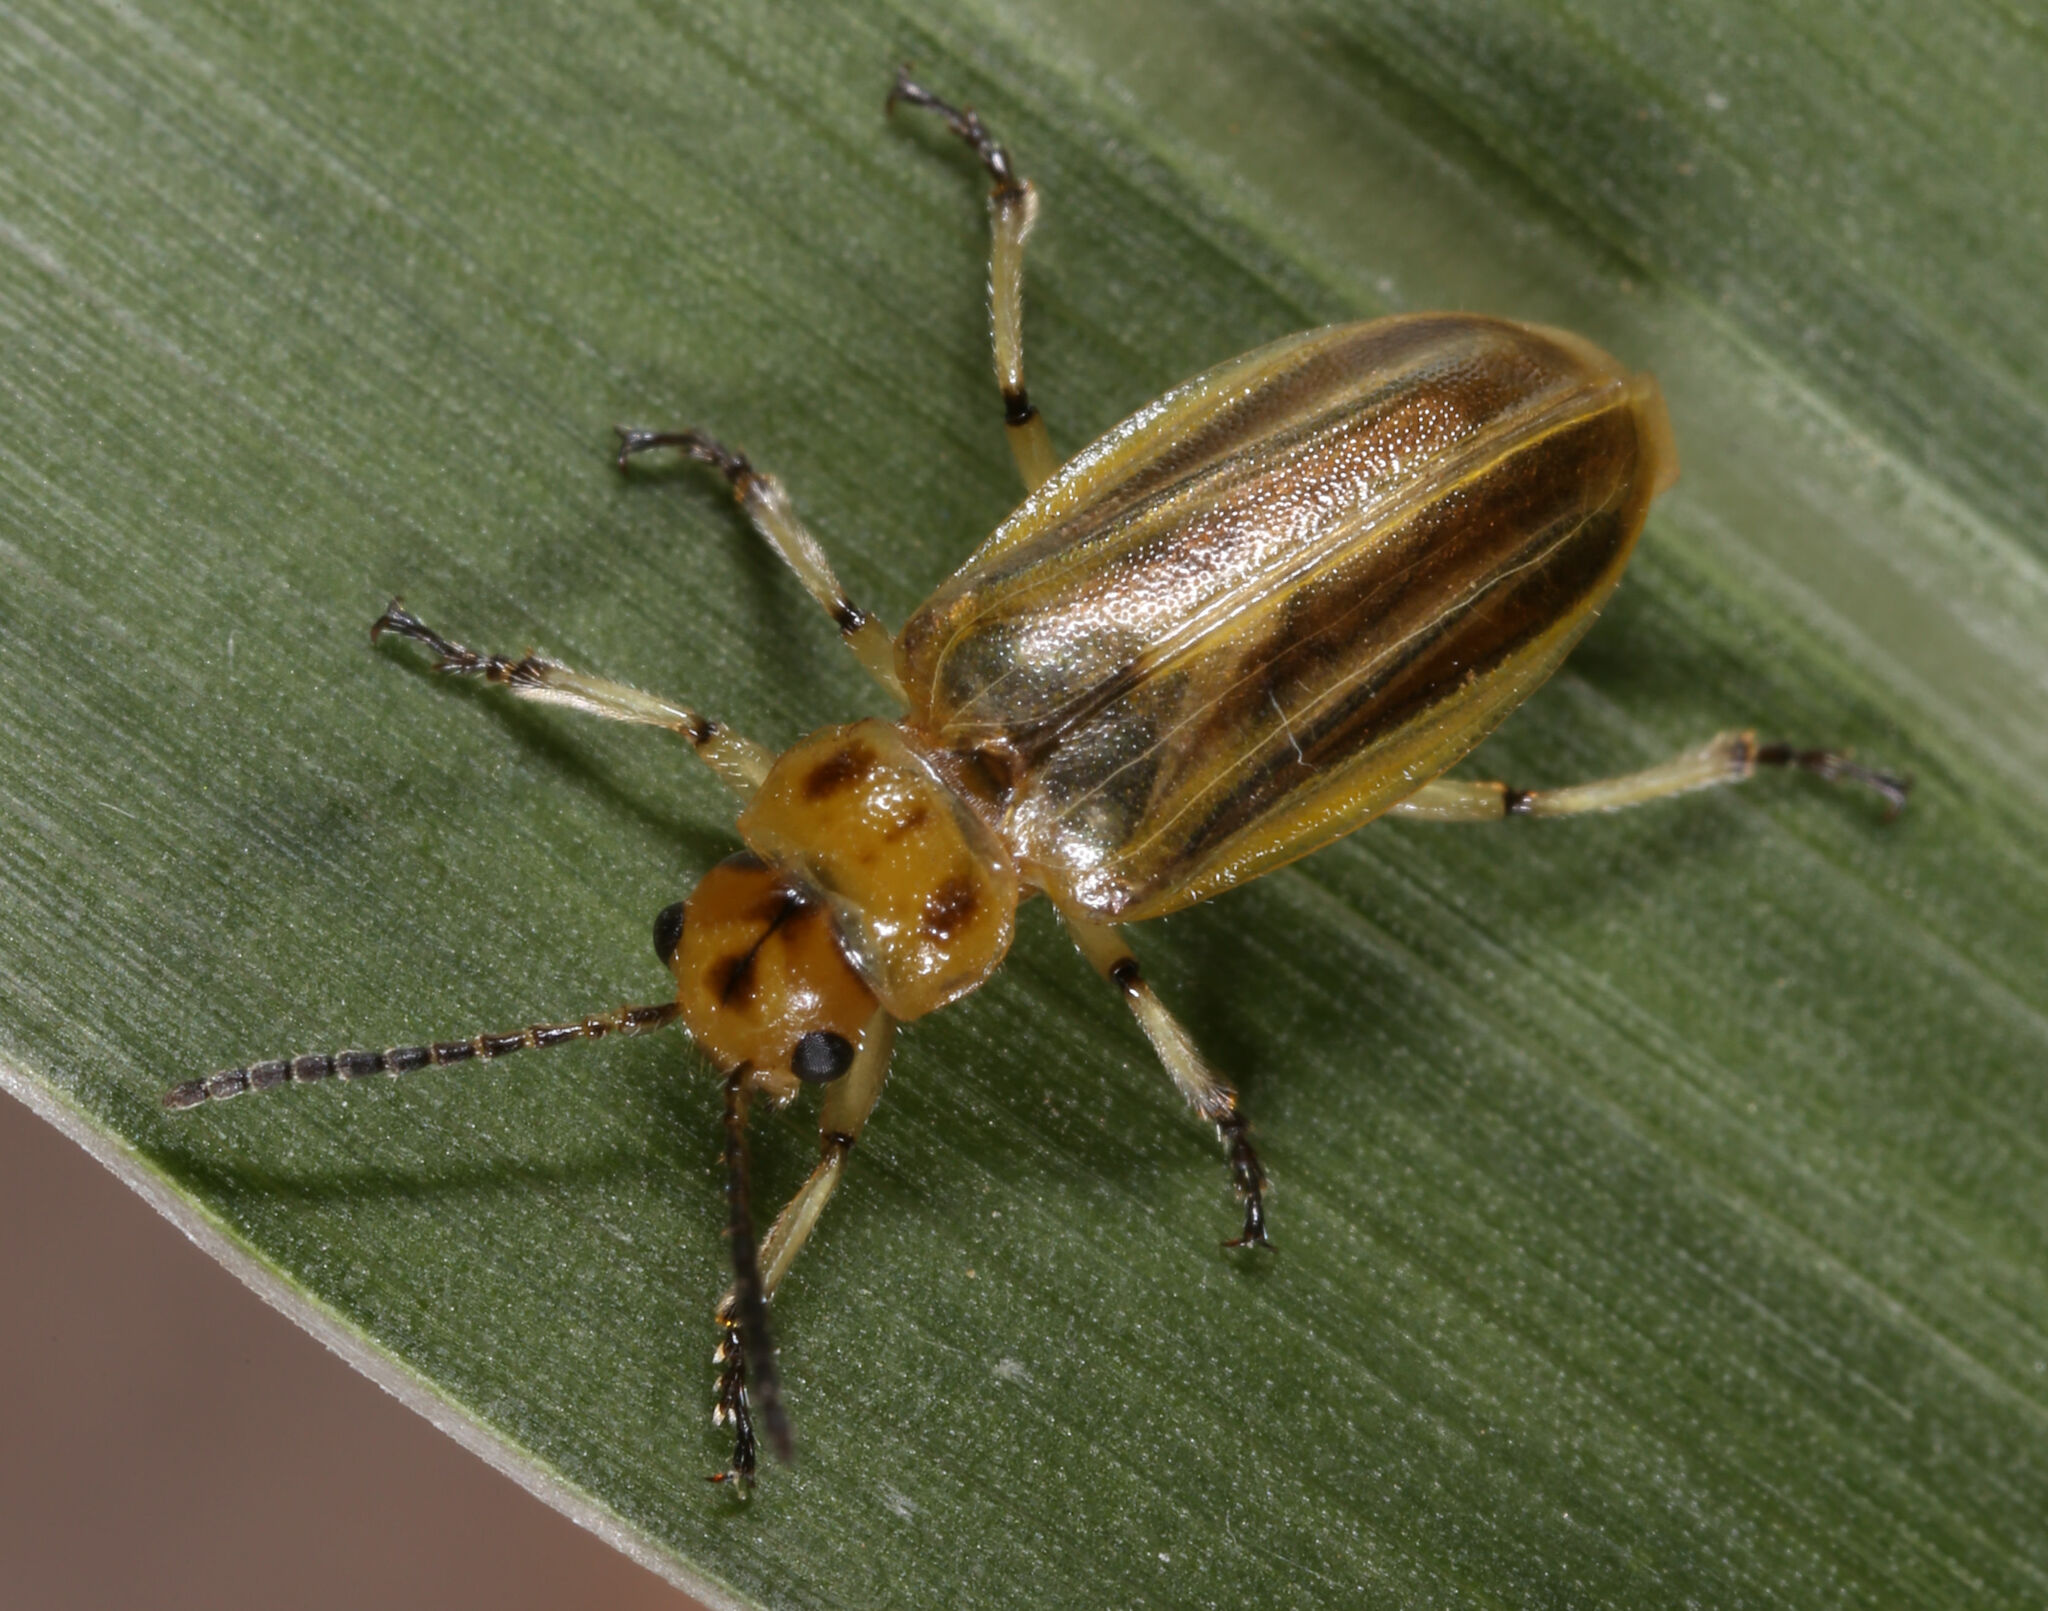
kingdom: Animalia
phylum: Arthropoda
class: Insecta
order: Coleoptera
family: Chrysomelidae
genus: Diorhabda
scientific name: Diorhabda
